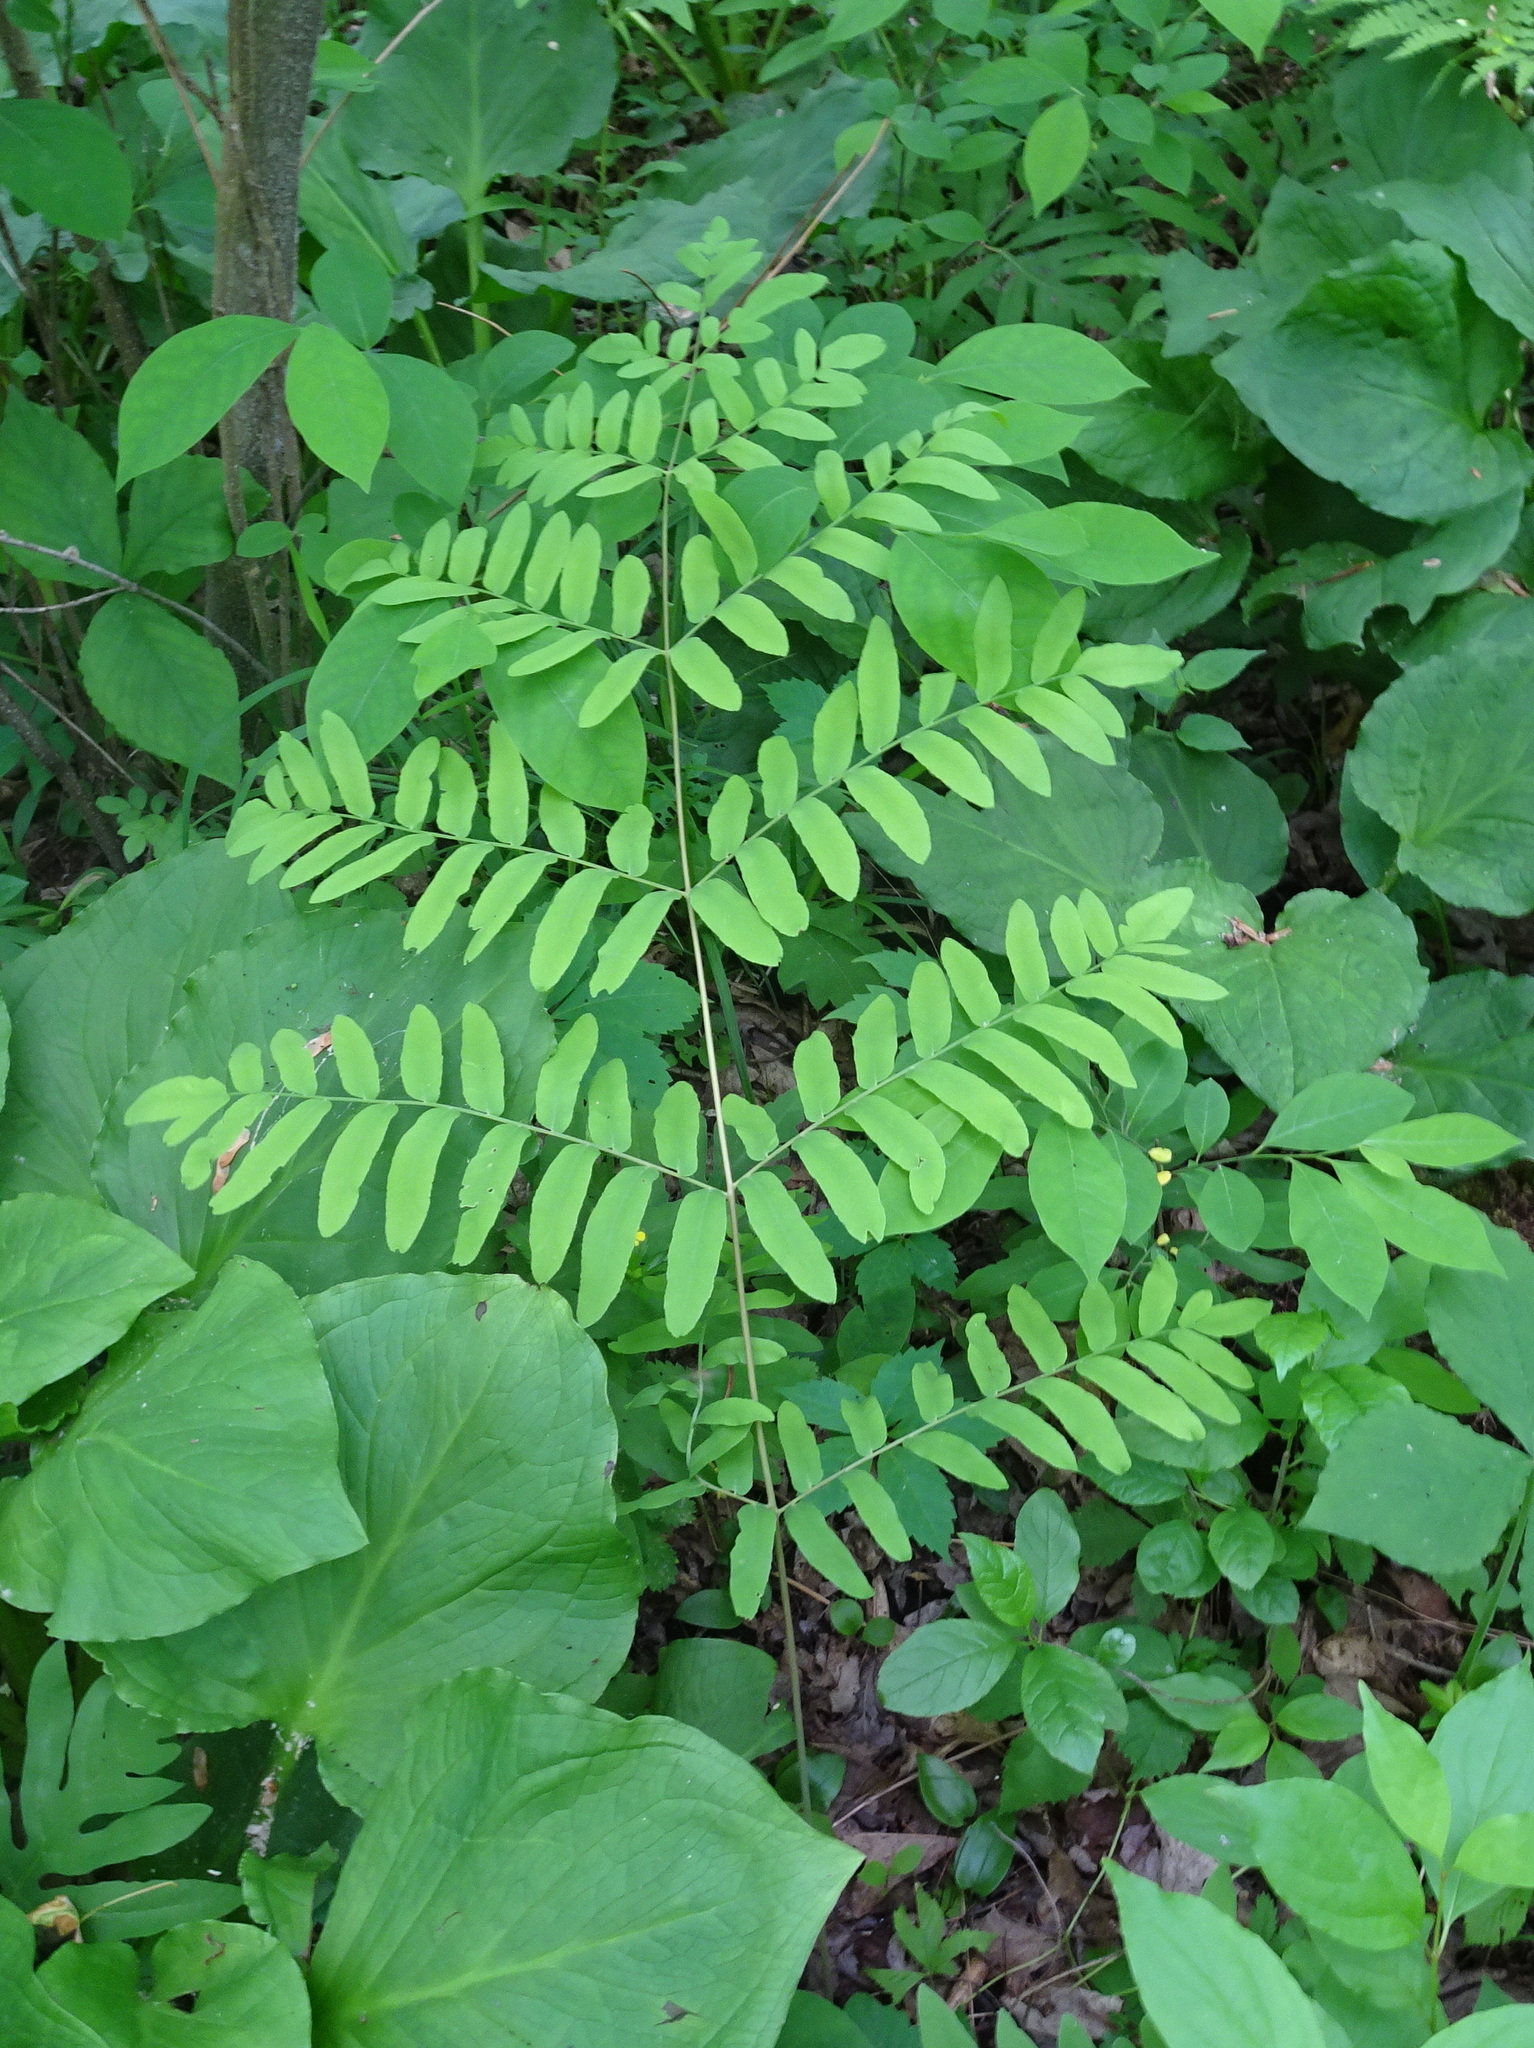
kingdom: Plantae
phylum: Tracheophyta
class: Polypodiopsida
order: Osmundales
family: Osmundaceae
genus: Osmunda
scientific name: Osmunda spectabilis
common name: American royal fern
